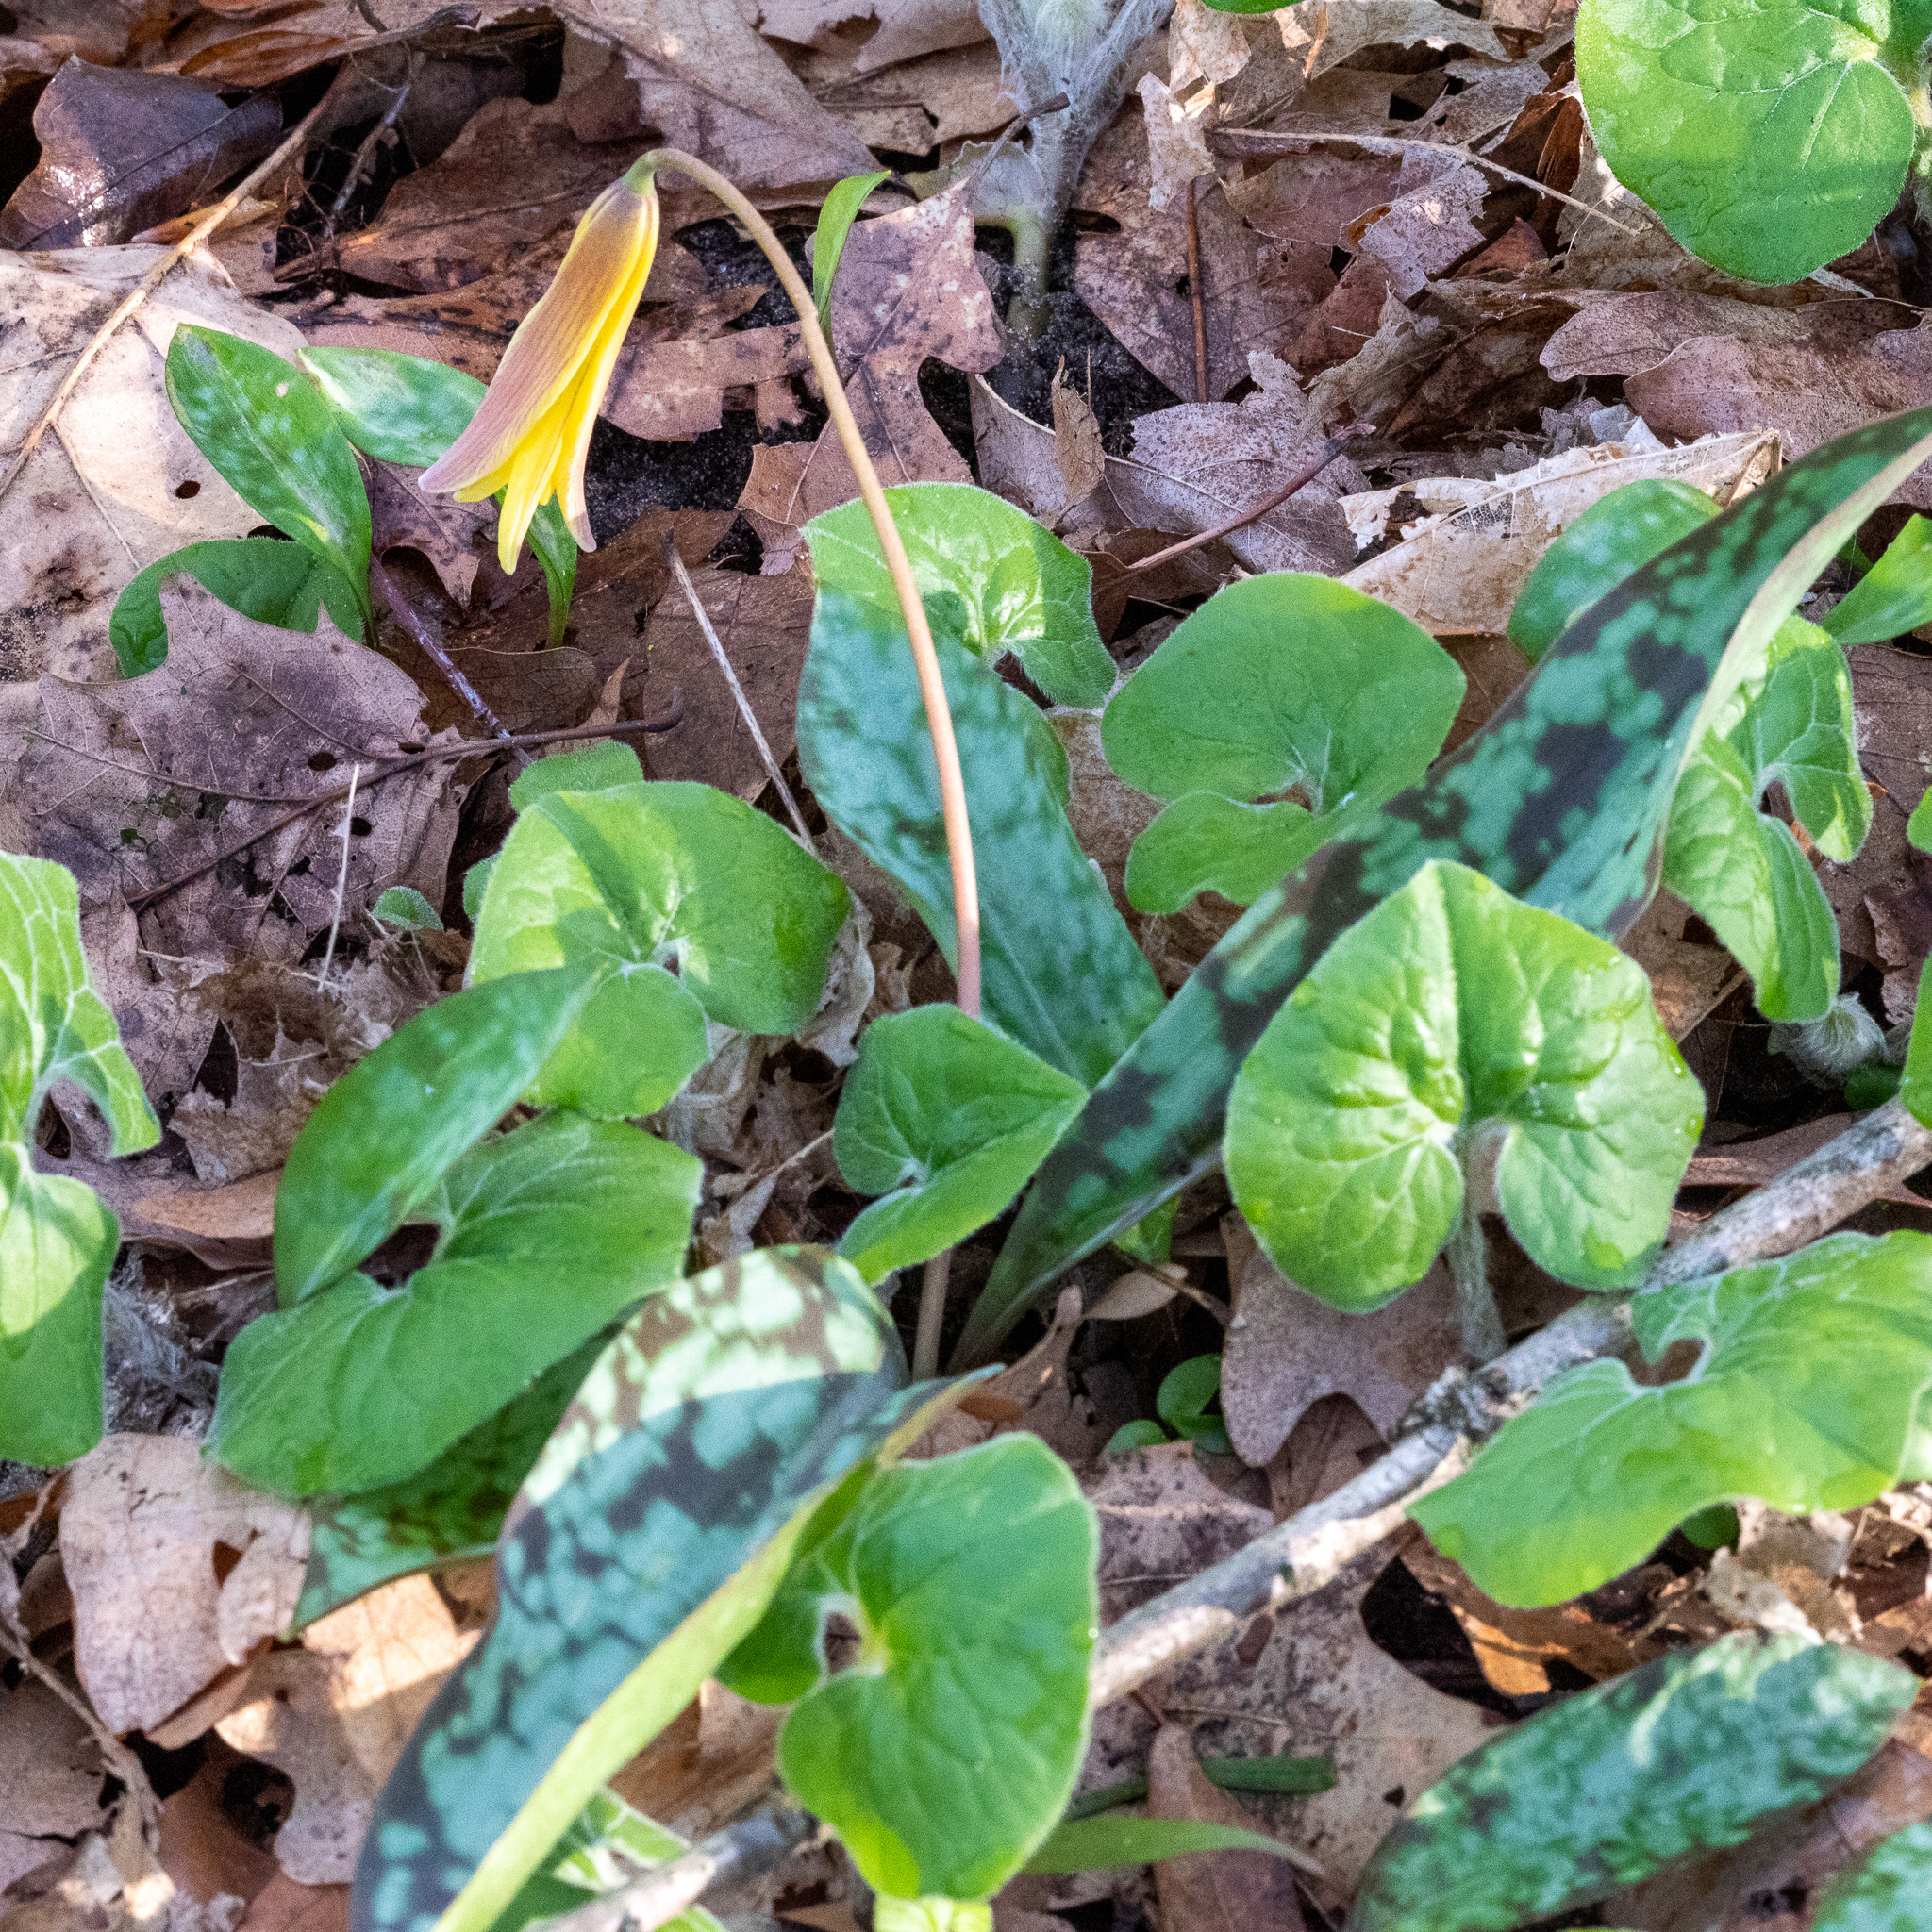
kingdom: Plantae
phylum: Tracheophyta
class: Liliopsida
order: Liliales
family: Liliaceae
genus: Erythronium
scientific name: Erythronium americanum
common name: Yellow adder's-tongue
